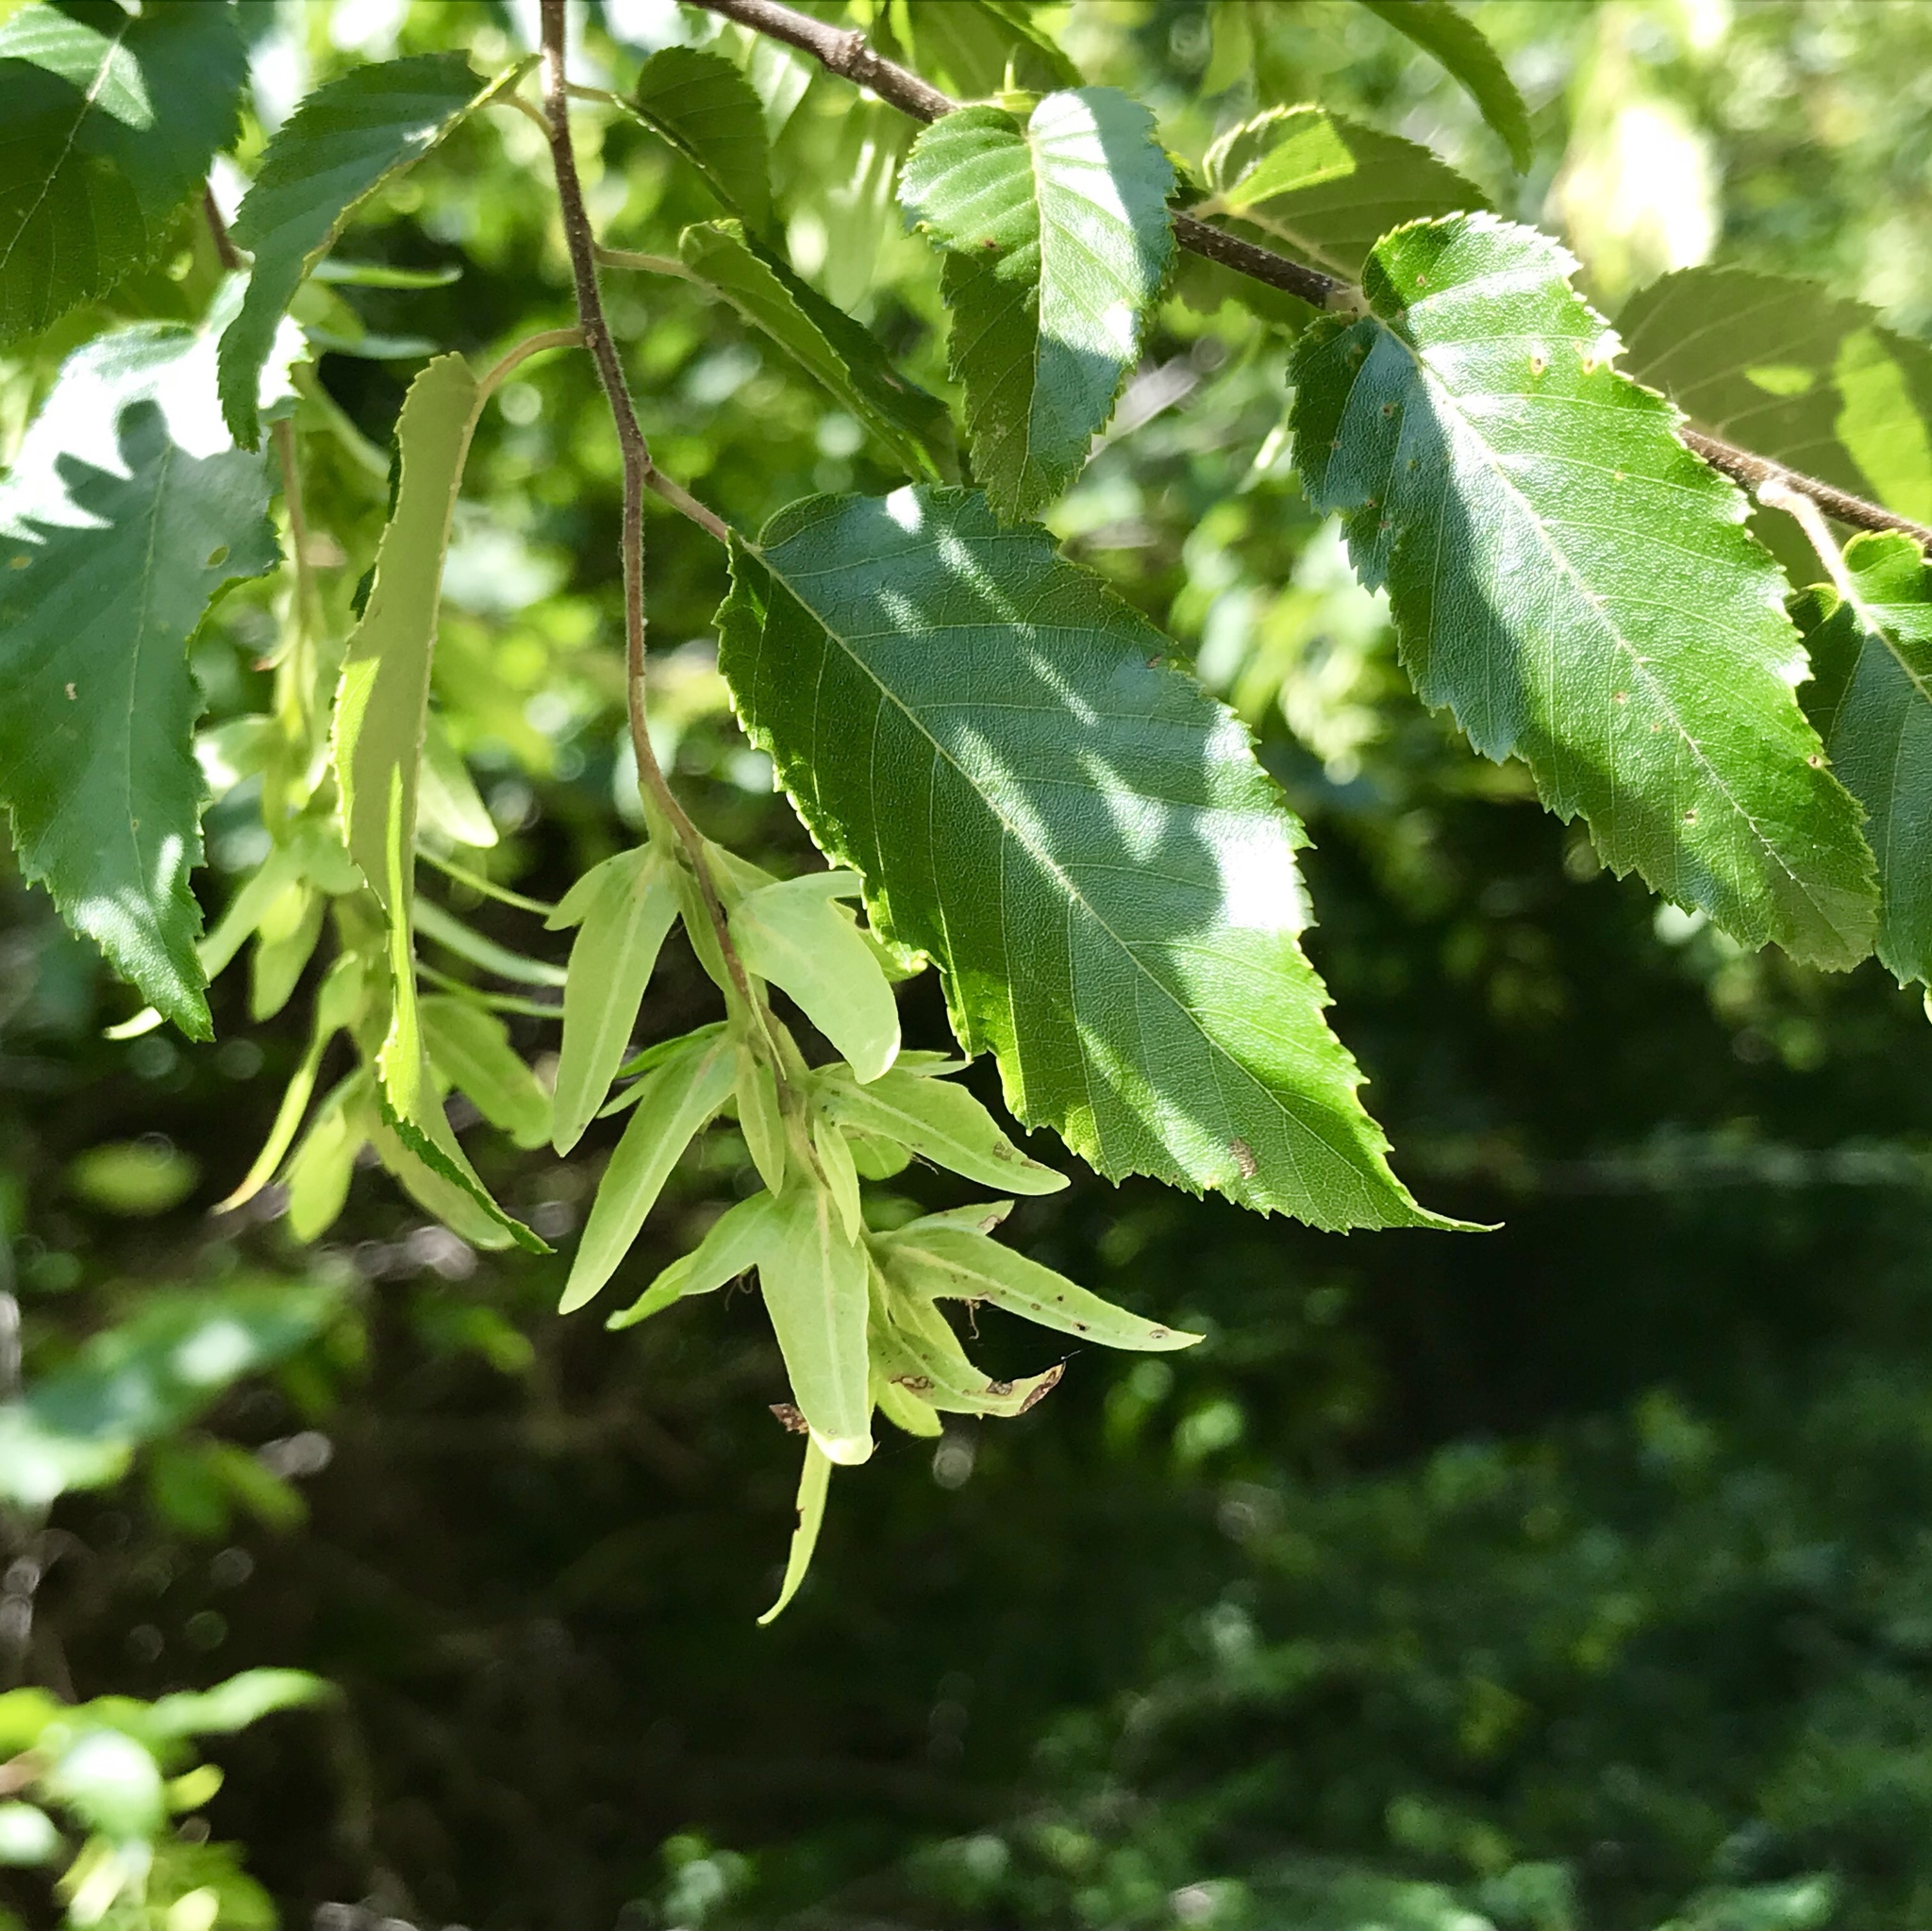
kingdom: Plantae
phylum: Tracheophyta
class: Magnoliopsida
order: Fagales
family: Betulaceae
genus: Carpinus
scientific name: Carpinus caroliniana
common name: American hornbeam
